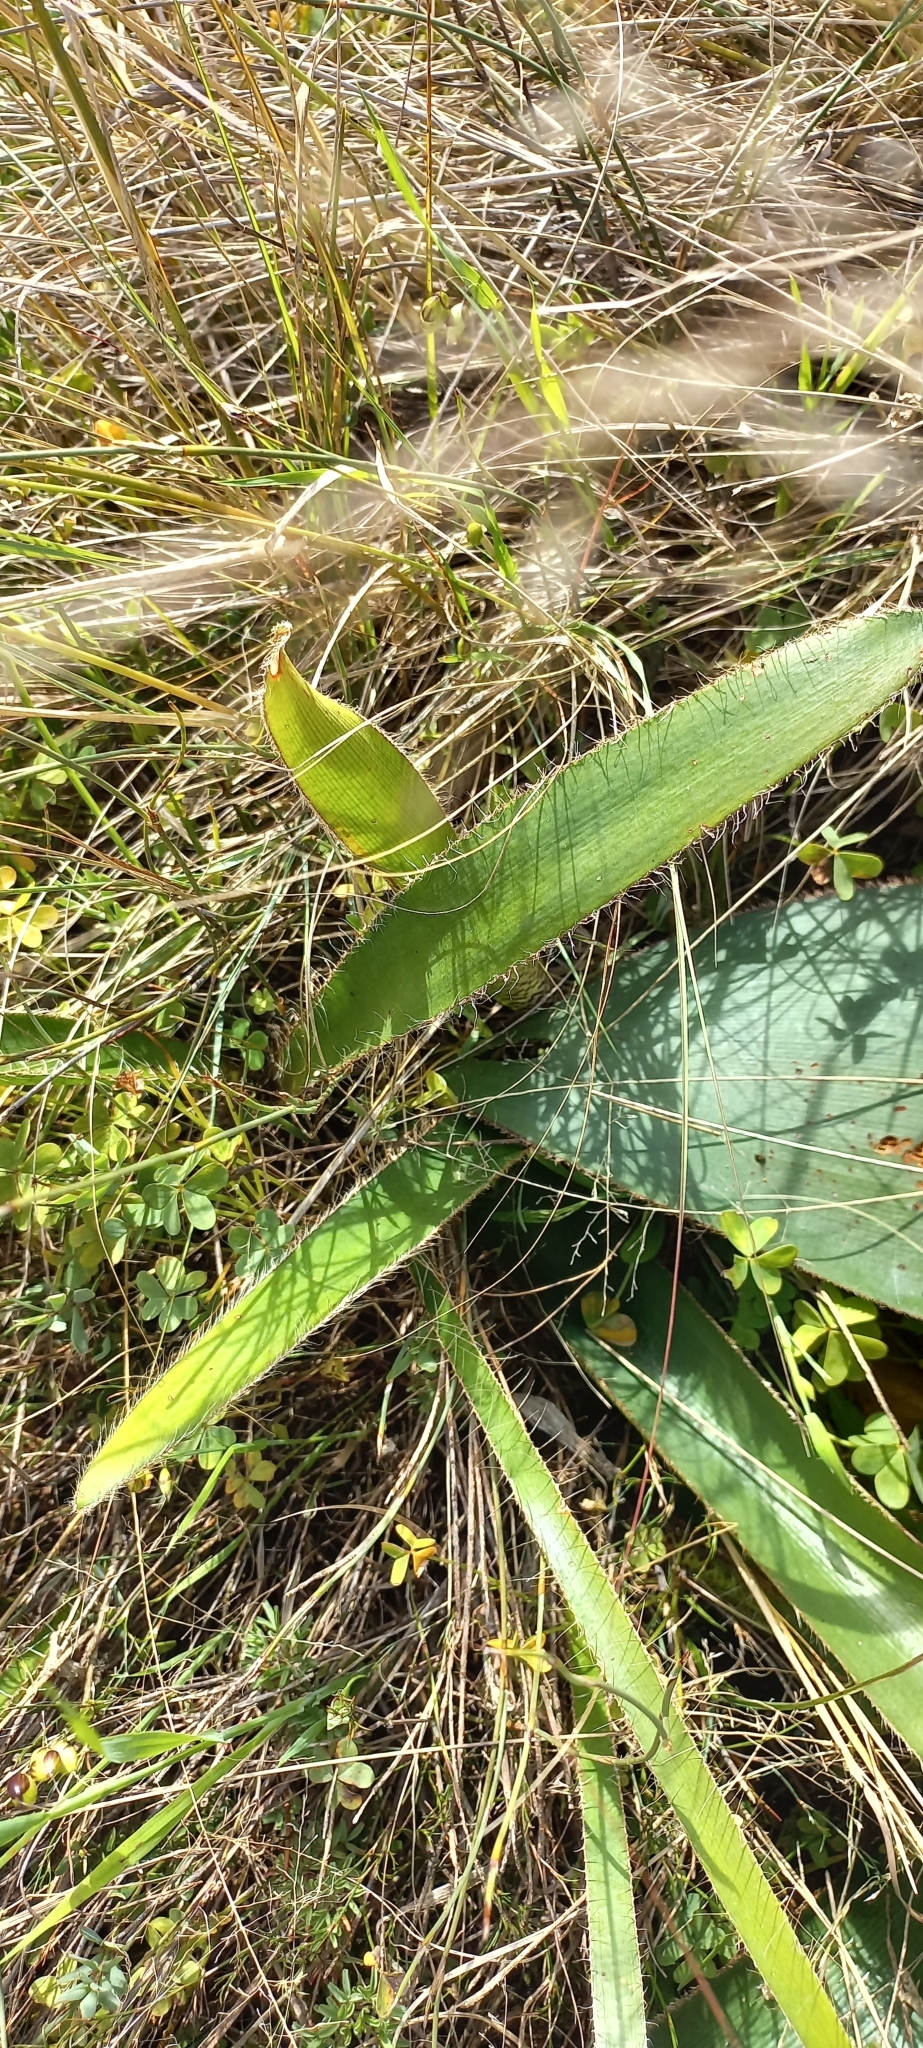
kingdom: Plantae
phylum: Tracheophyta
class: Liliopsida
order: Asparagales
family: Amaryllidaceae
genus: Crossyne
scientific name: Crossyne guttata
